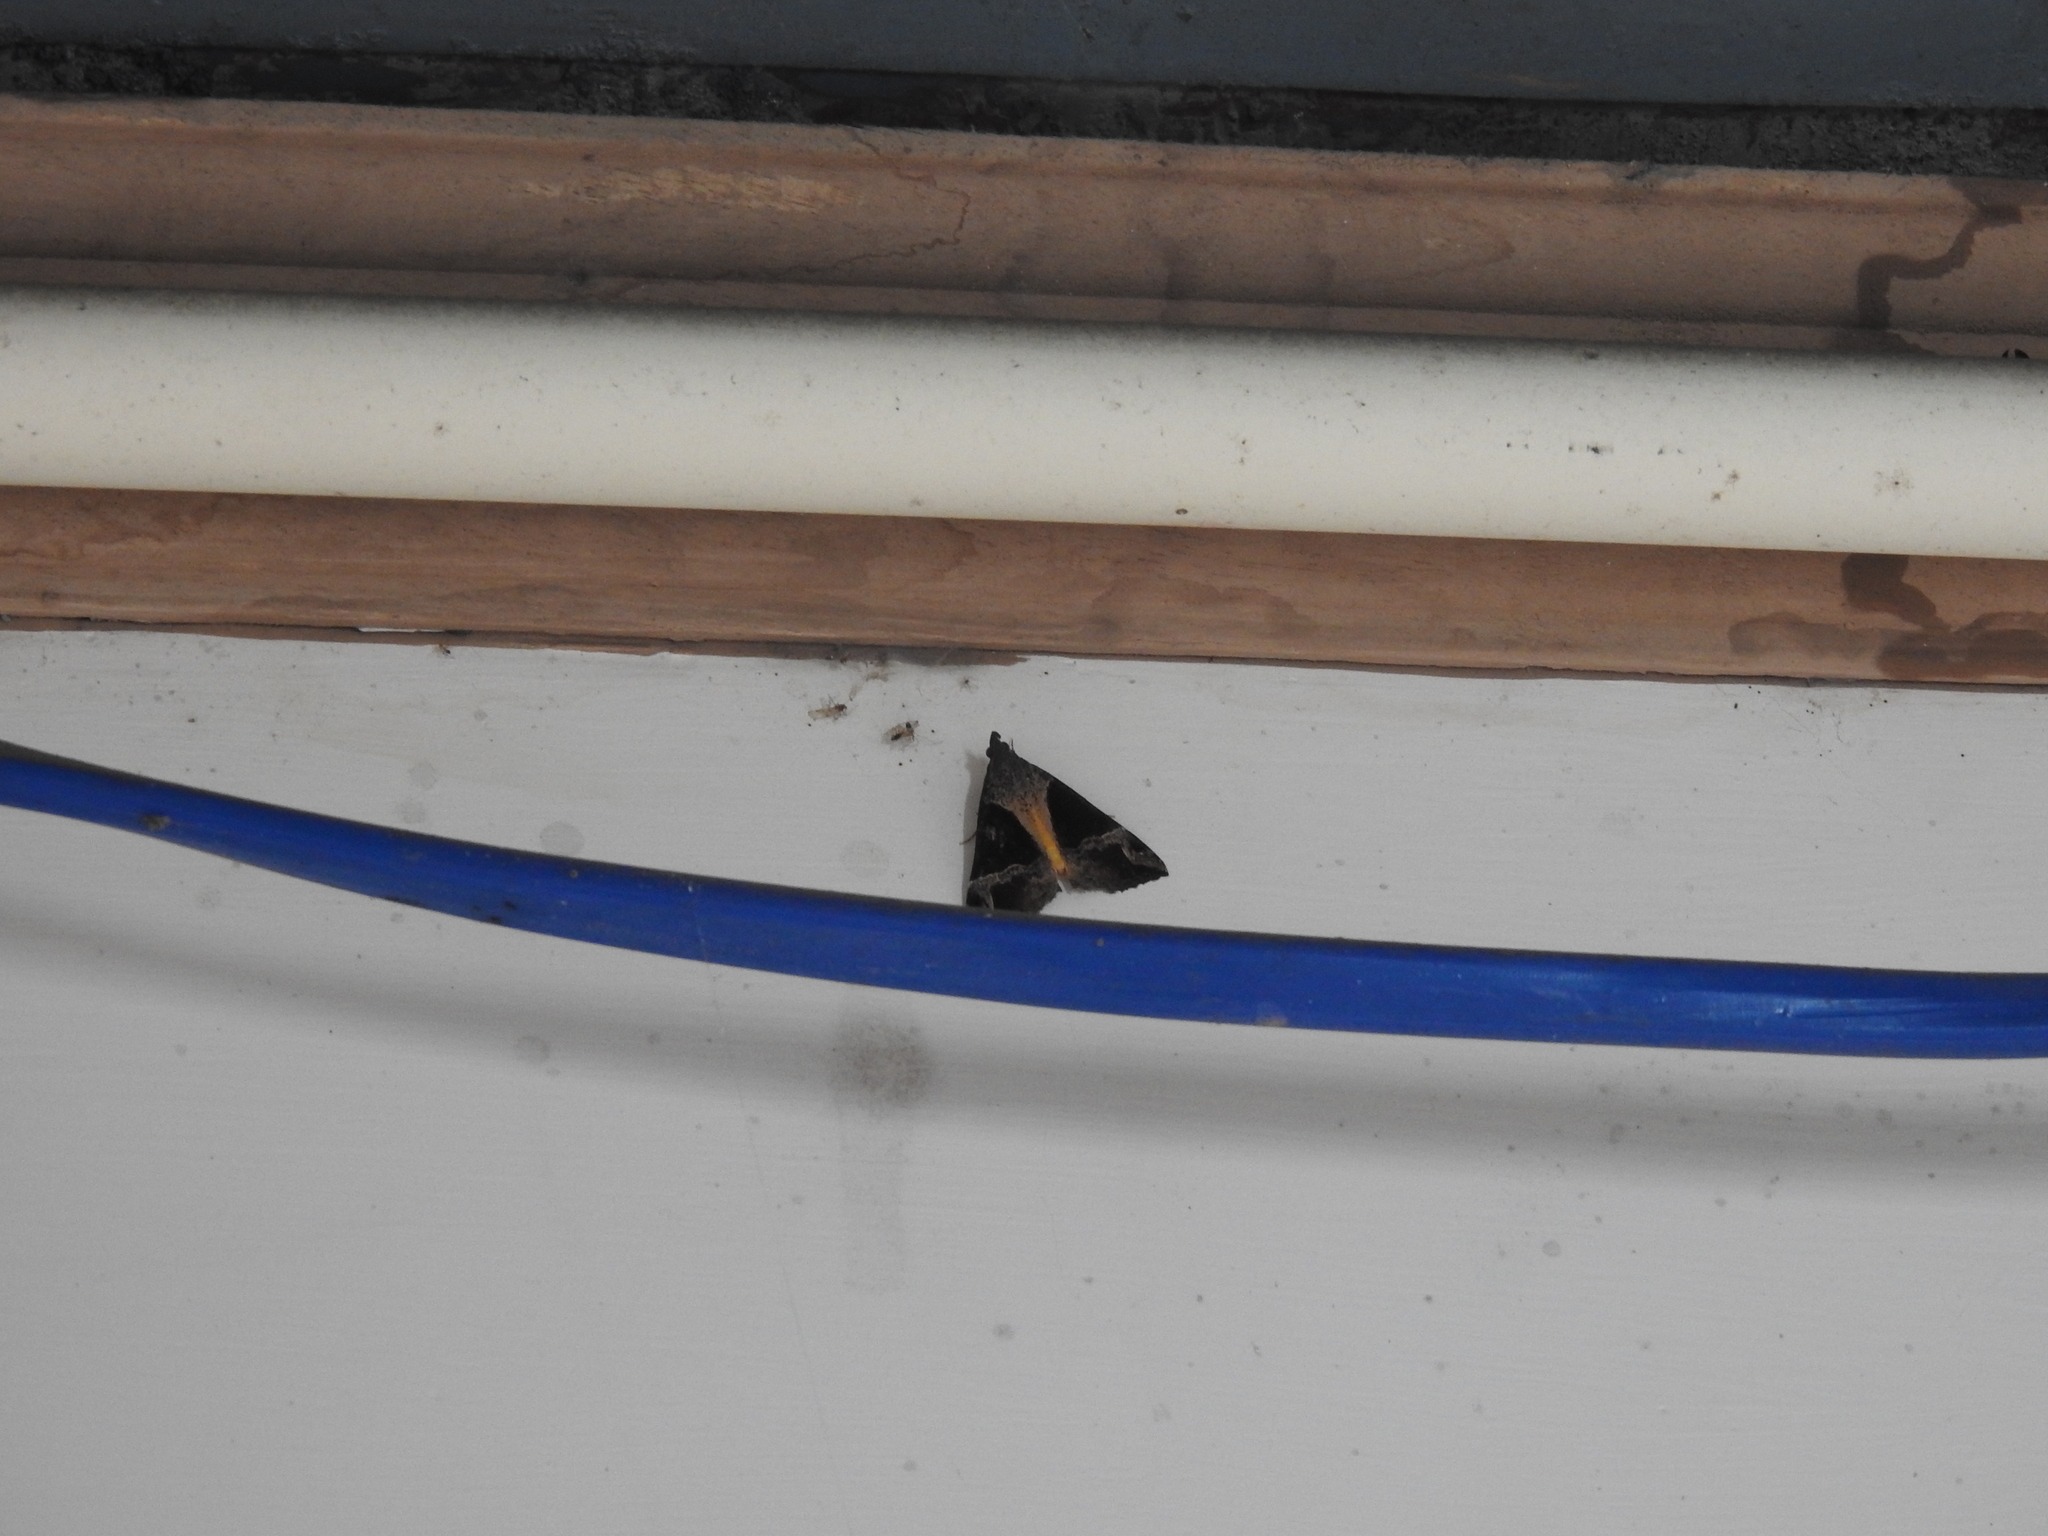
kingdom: Animalia
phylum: Arthropoda
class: Insecta
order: Lepidoptera
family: Erebidae
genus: Hypena
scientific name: Hypena quadralis
